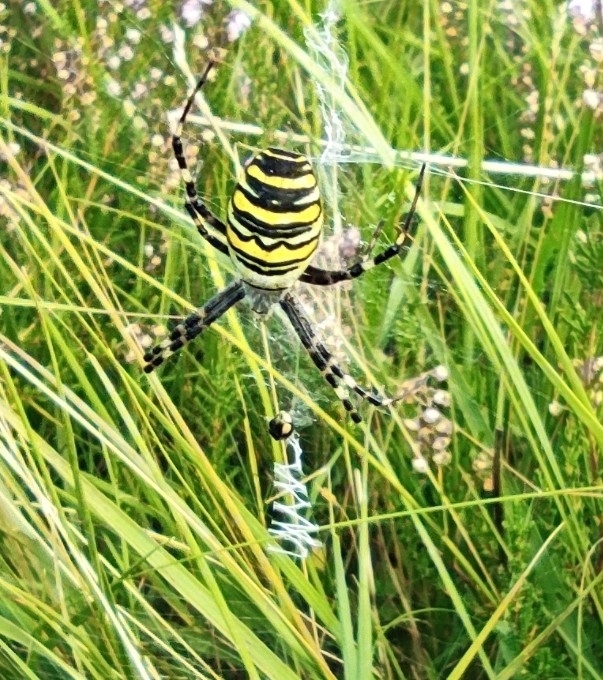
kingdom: Animalia
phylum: Arthropoda
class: Arachnida
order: Araneae
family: Araneidae
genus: Argiope
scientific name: Argiope bruennichi
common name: Wasp spider
